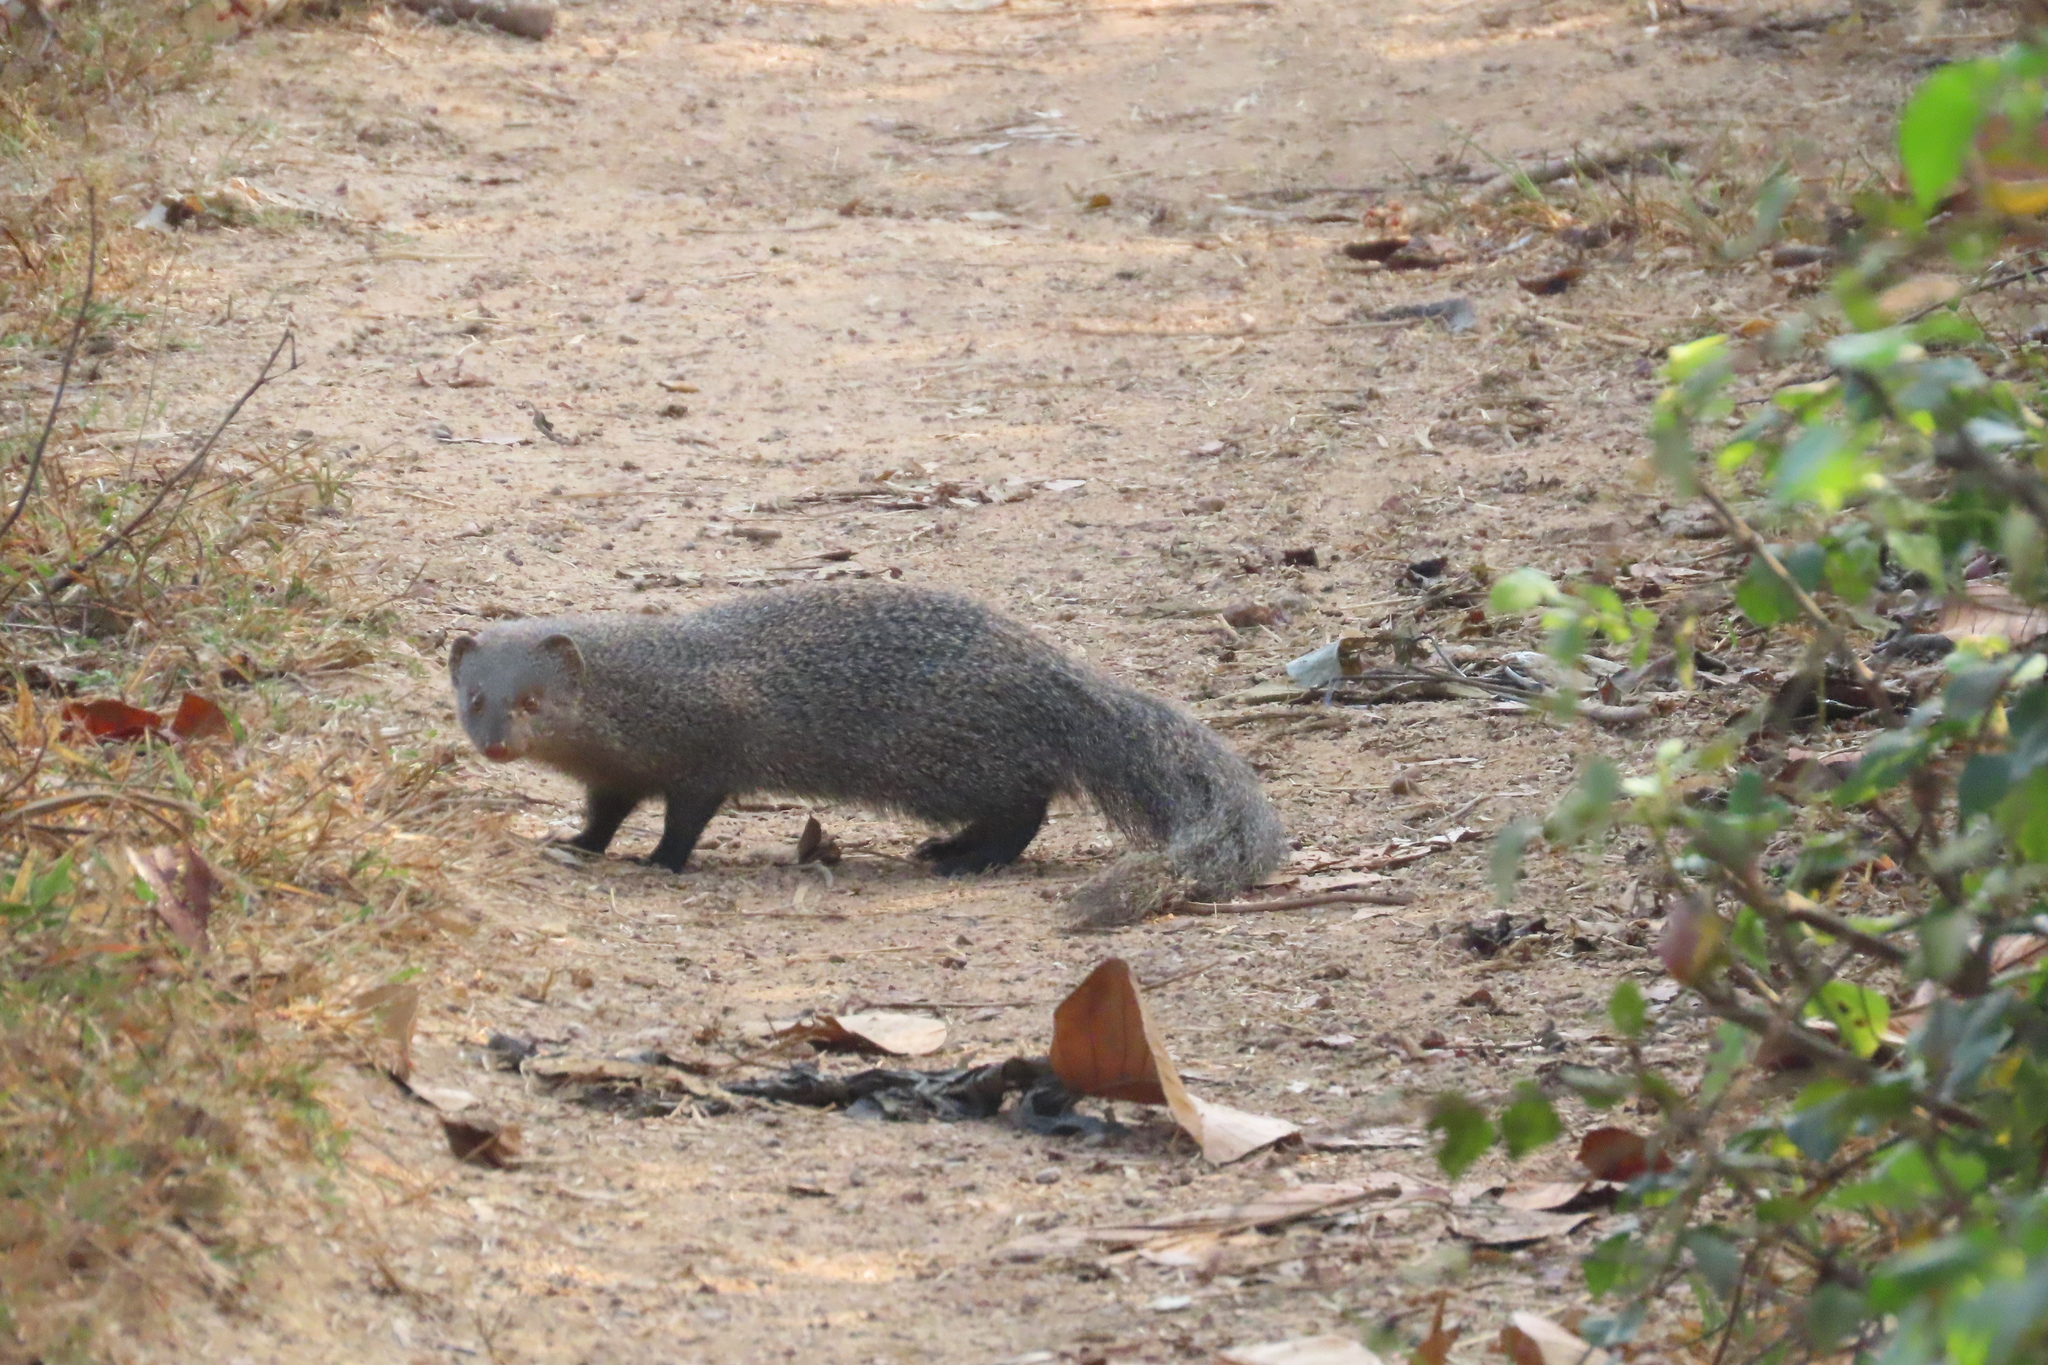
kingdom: Animalia
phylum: Chordata
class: Mammalia
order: Carnivora
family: Herpestidae
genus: Herpestes
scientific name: Herpestes edwardsi
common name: Indian gray mongoose
